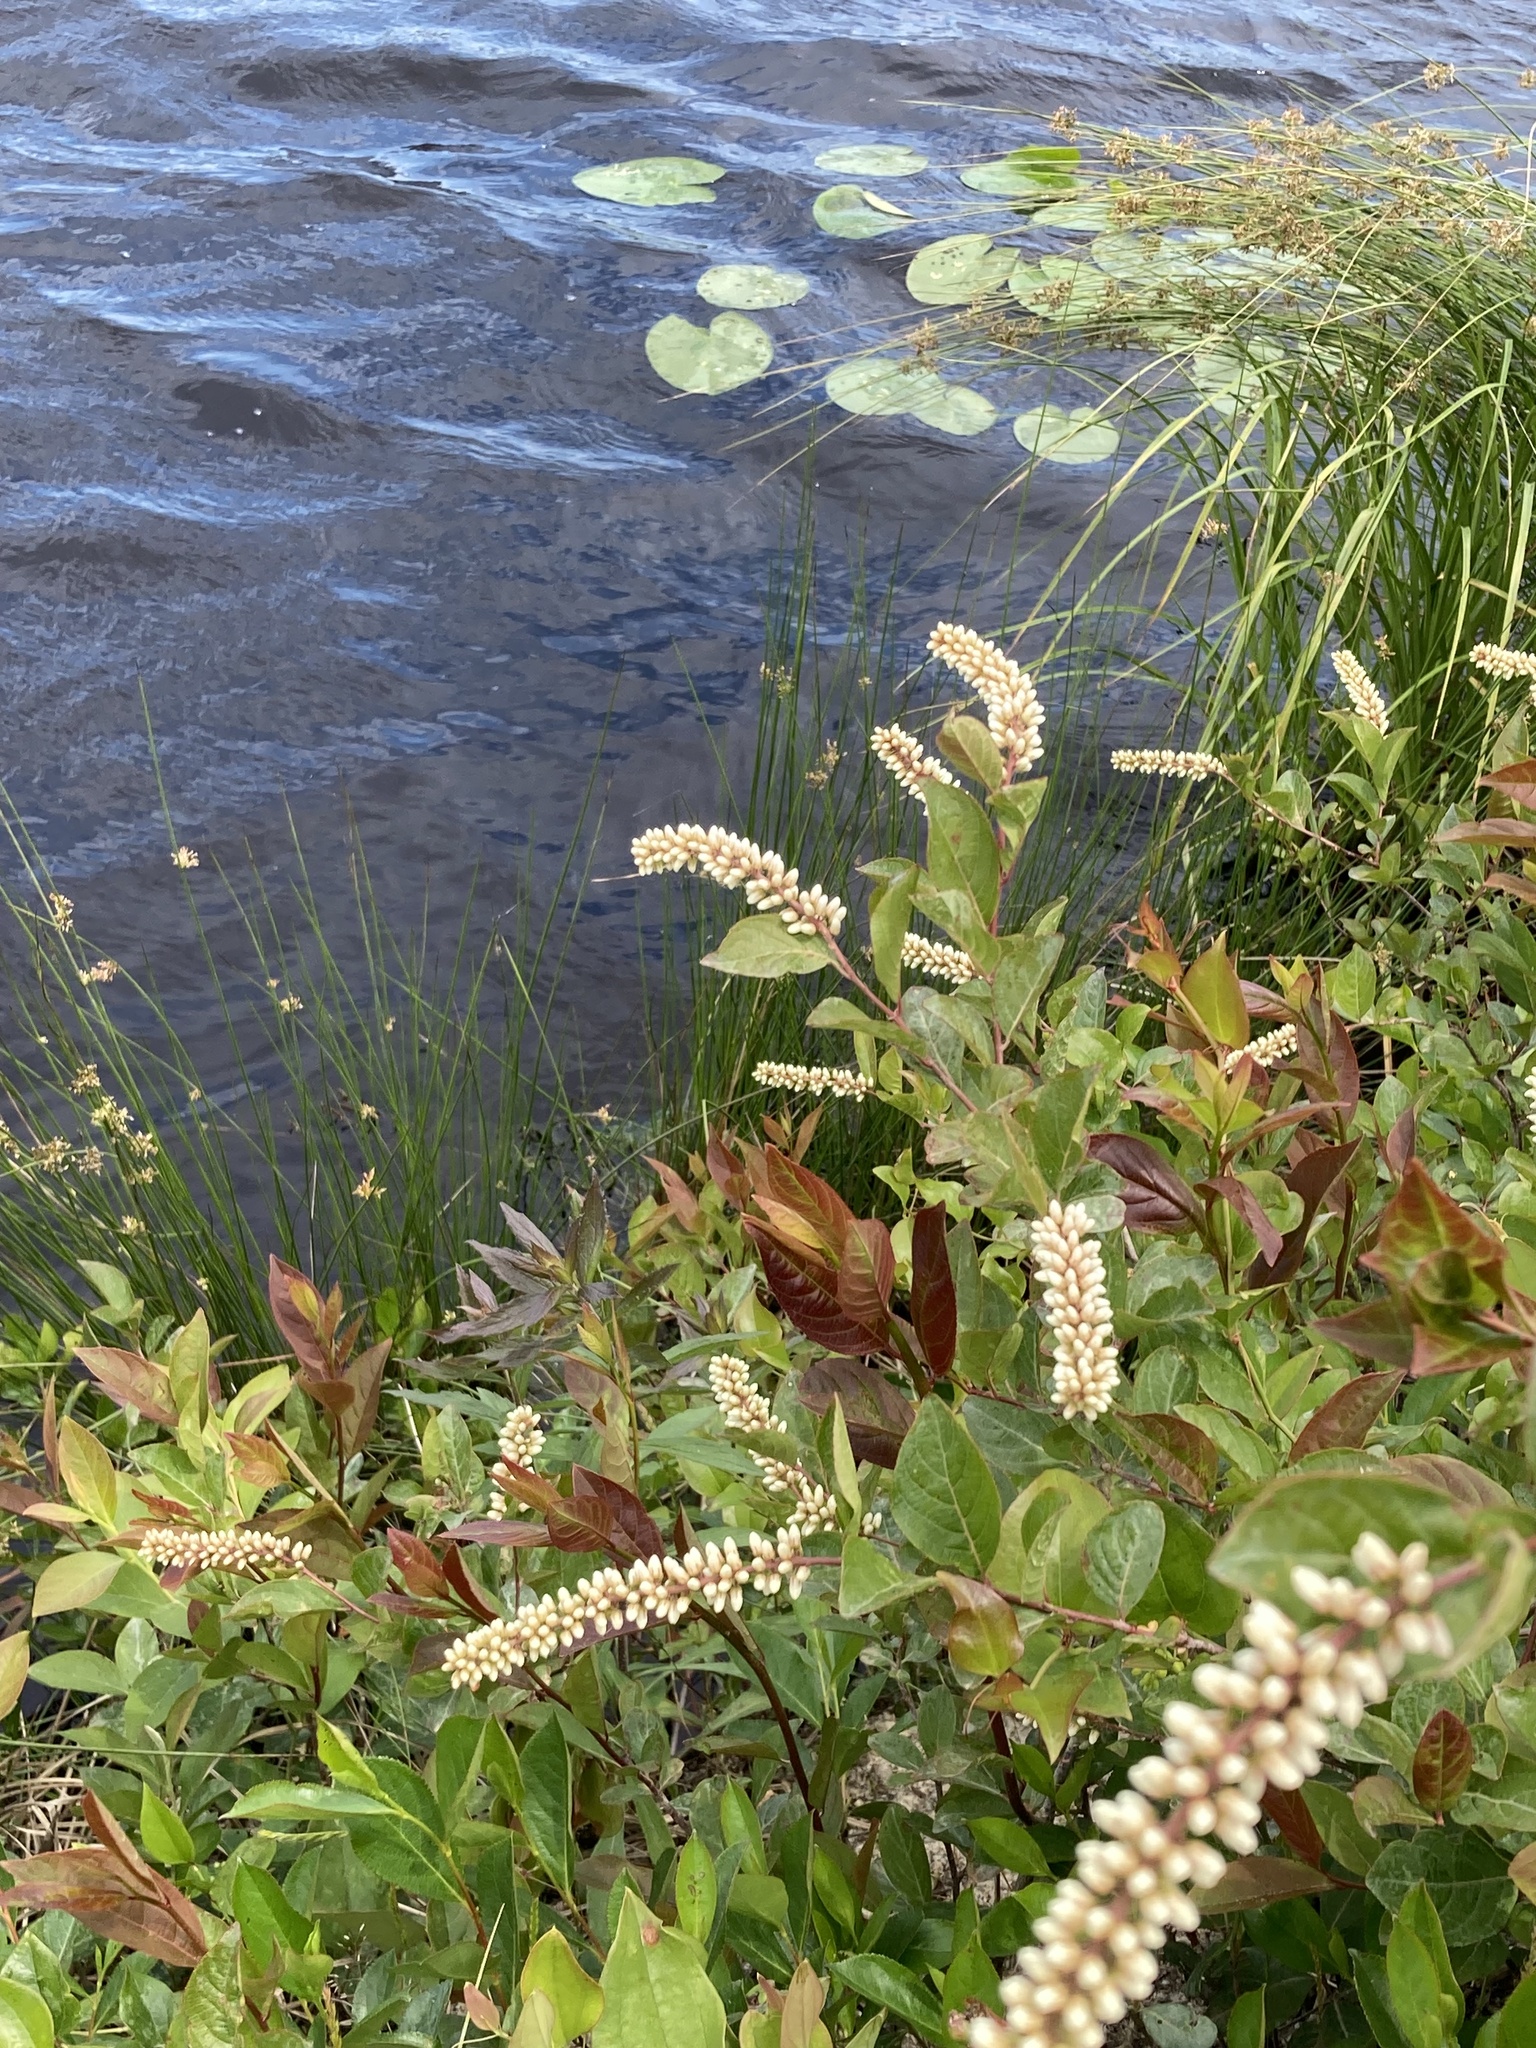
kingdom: Plantae
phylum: Tracheophyta
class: Magnoliopsida
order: Saxifragales
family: Iteaceae
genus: Itea
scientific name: Itea virginica
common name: Sweetspire
